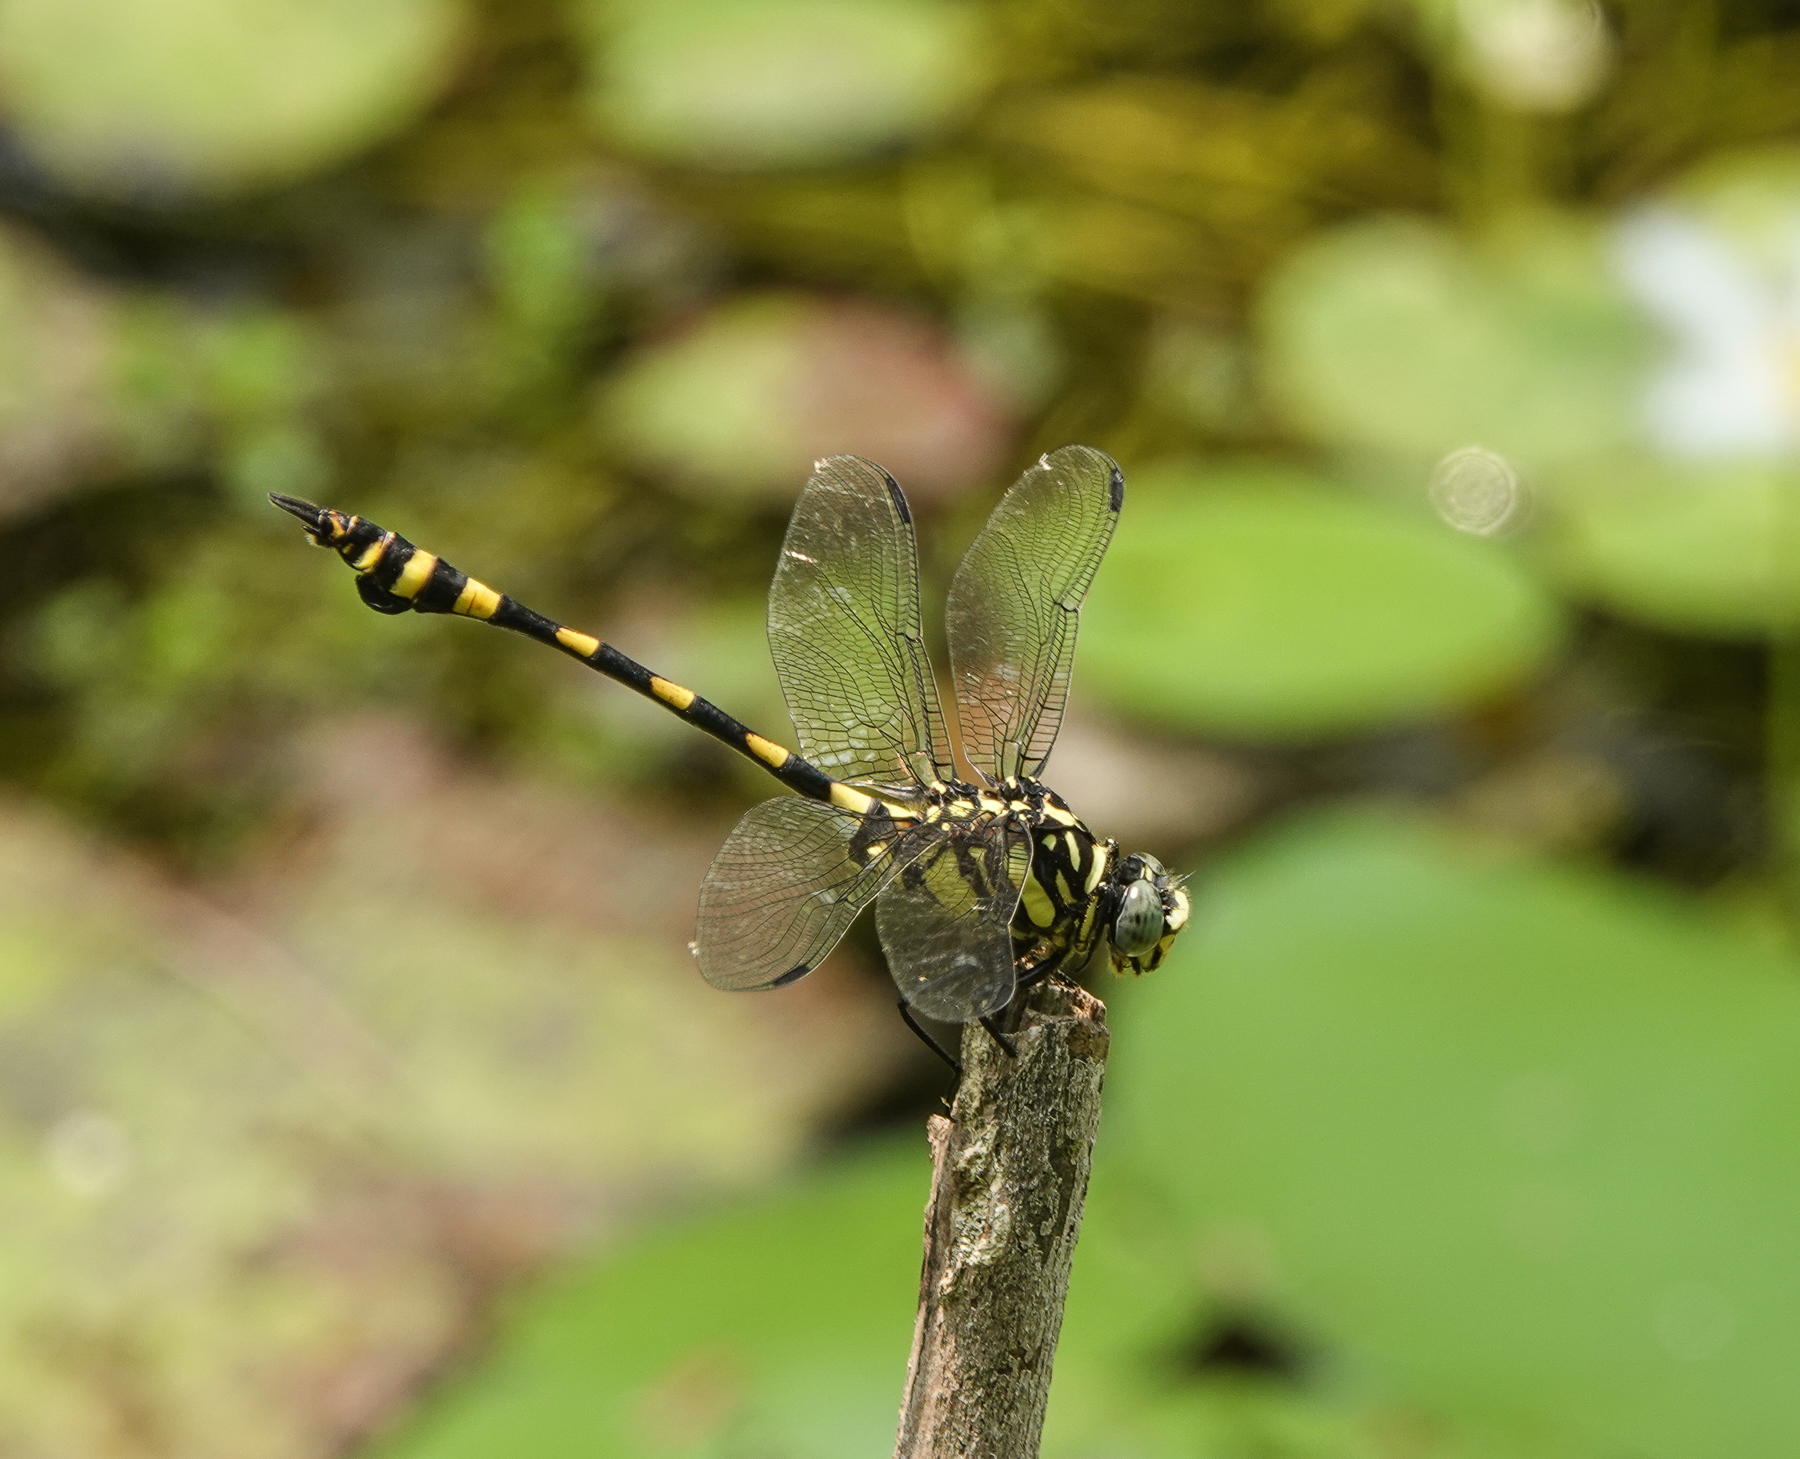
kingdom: Animalia
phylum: Arthropoda
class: Insecta
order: Odonata
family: Gomphidae
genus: Ictinogomphus
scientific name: Ictinogomphus rapax
